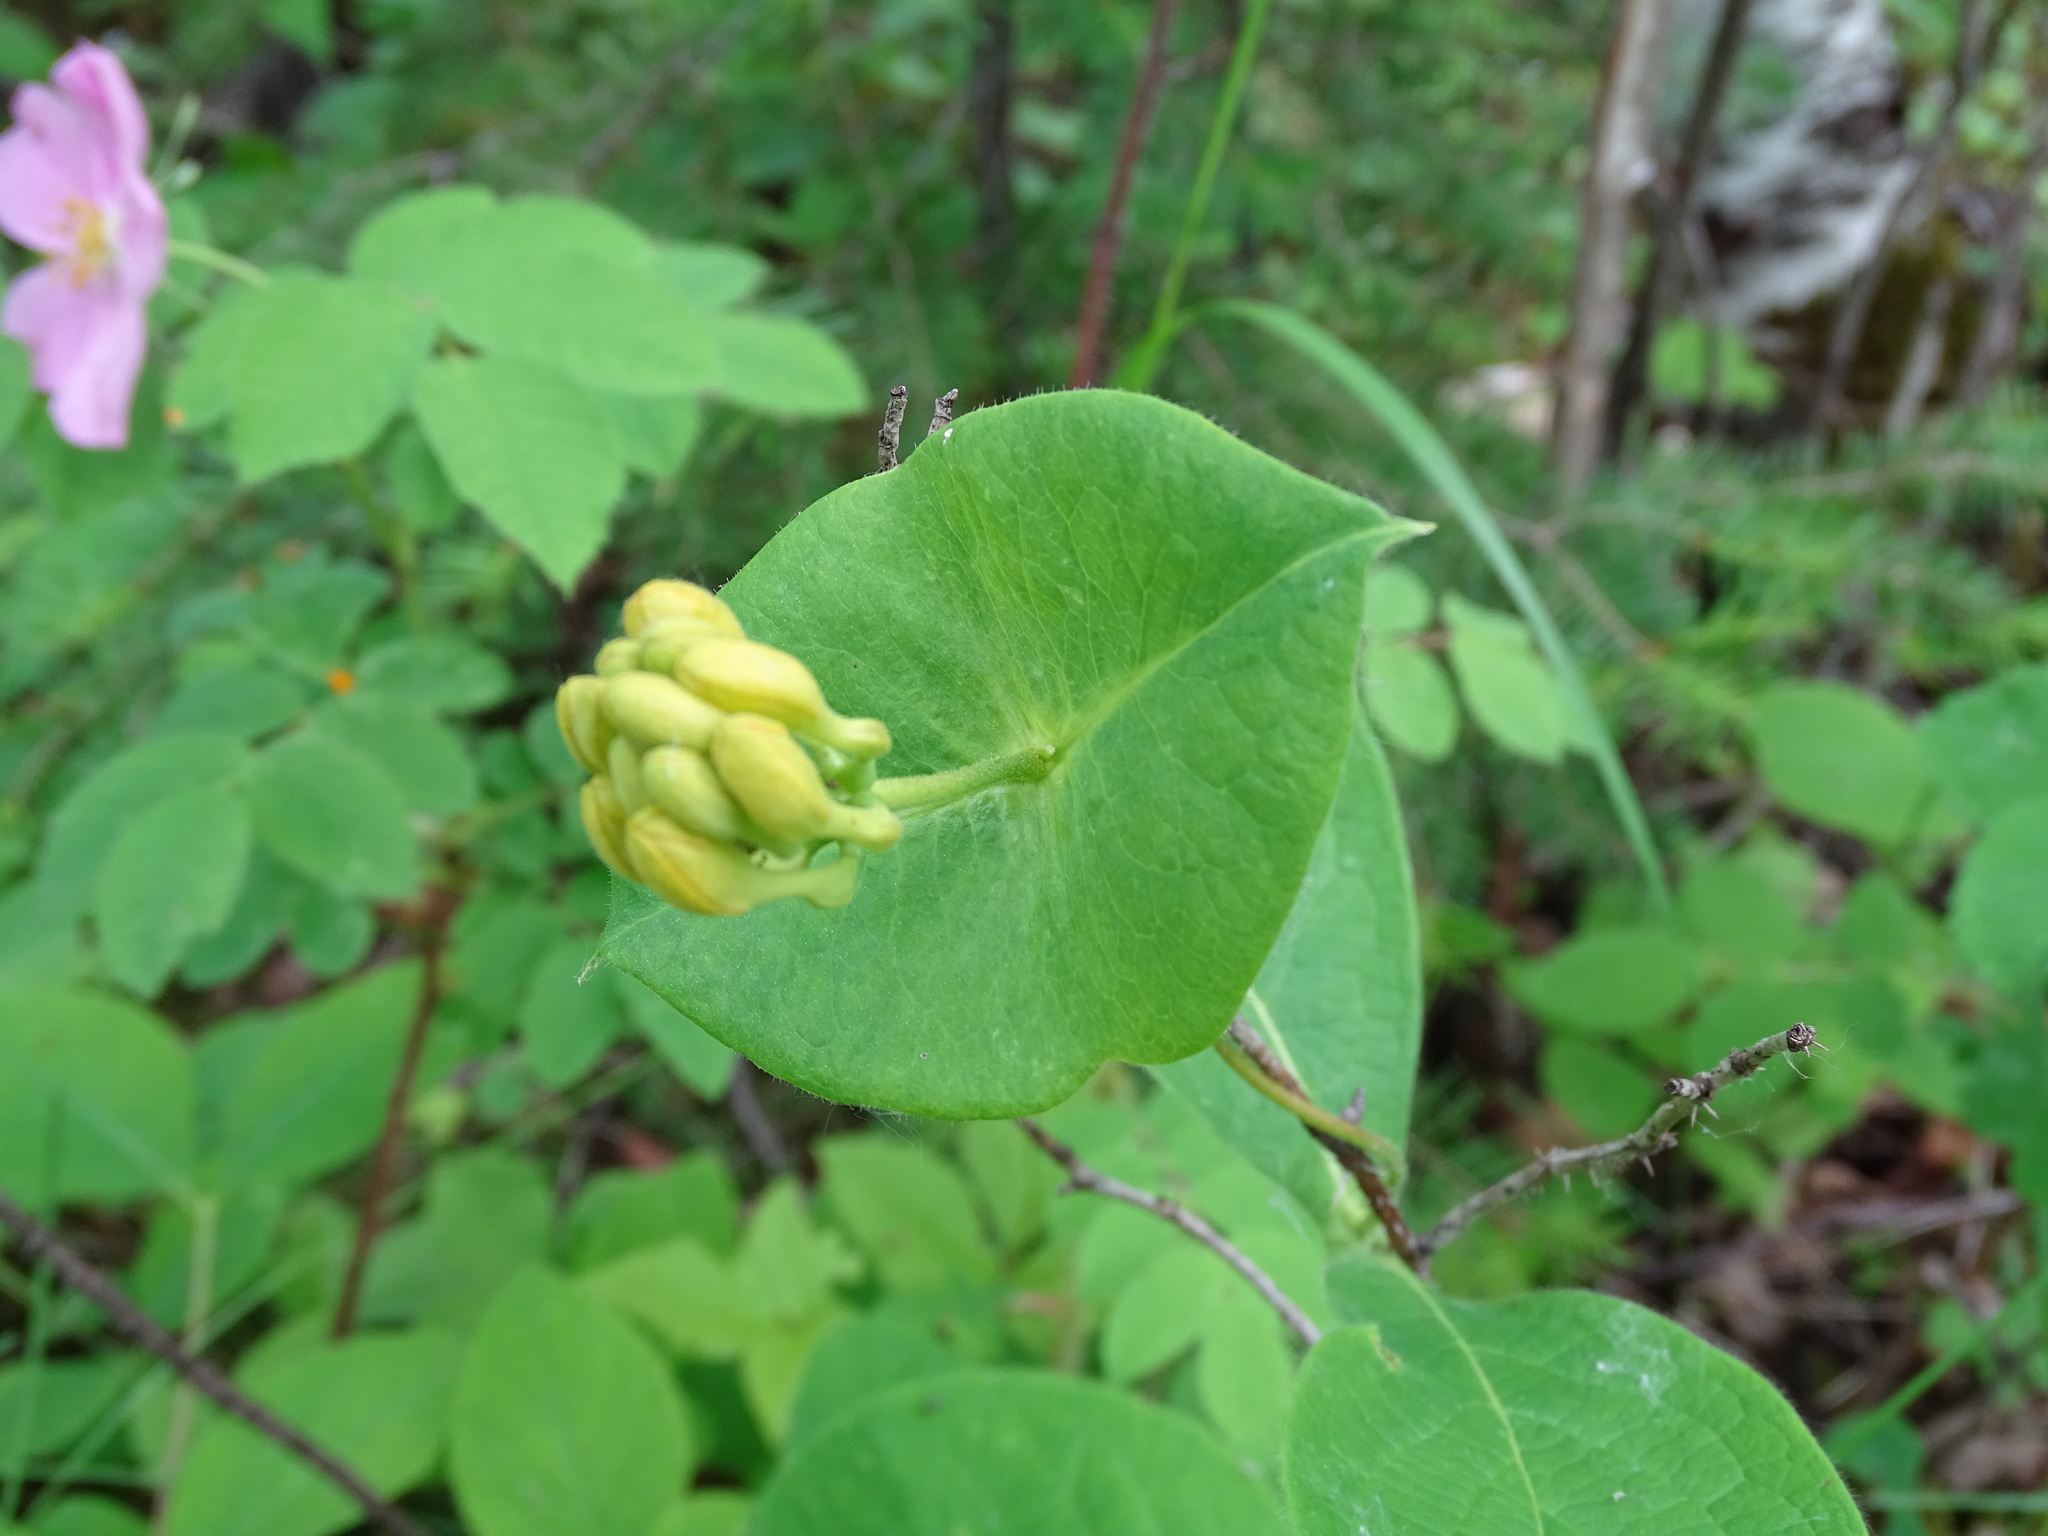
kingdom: Plantae
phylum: Tracheophyta
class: Magnoliopsida
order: Dipsacales
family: Caprifoliaceae
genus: Lonicera
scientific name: Lonicera hirsuta
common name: Hairy honeysuckle
